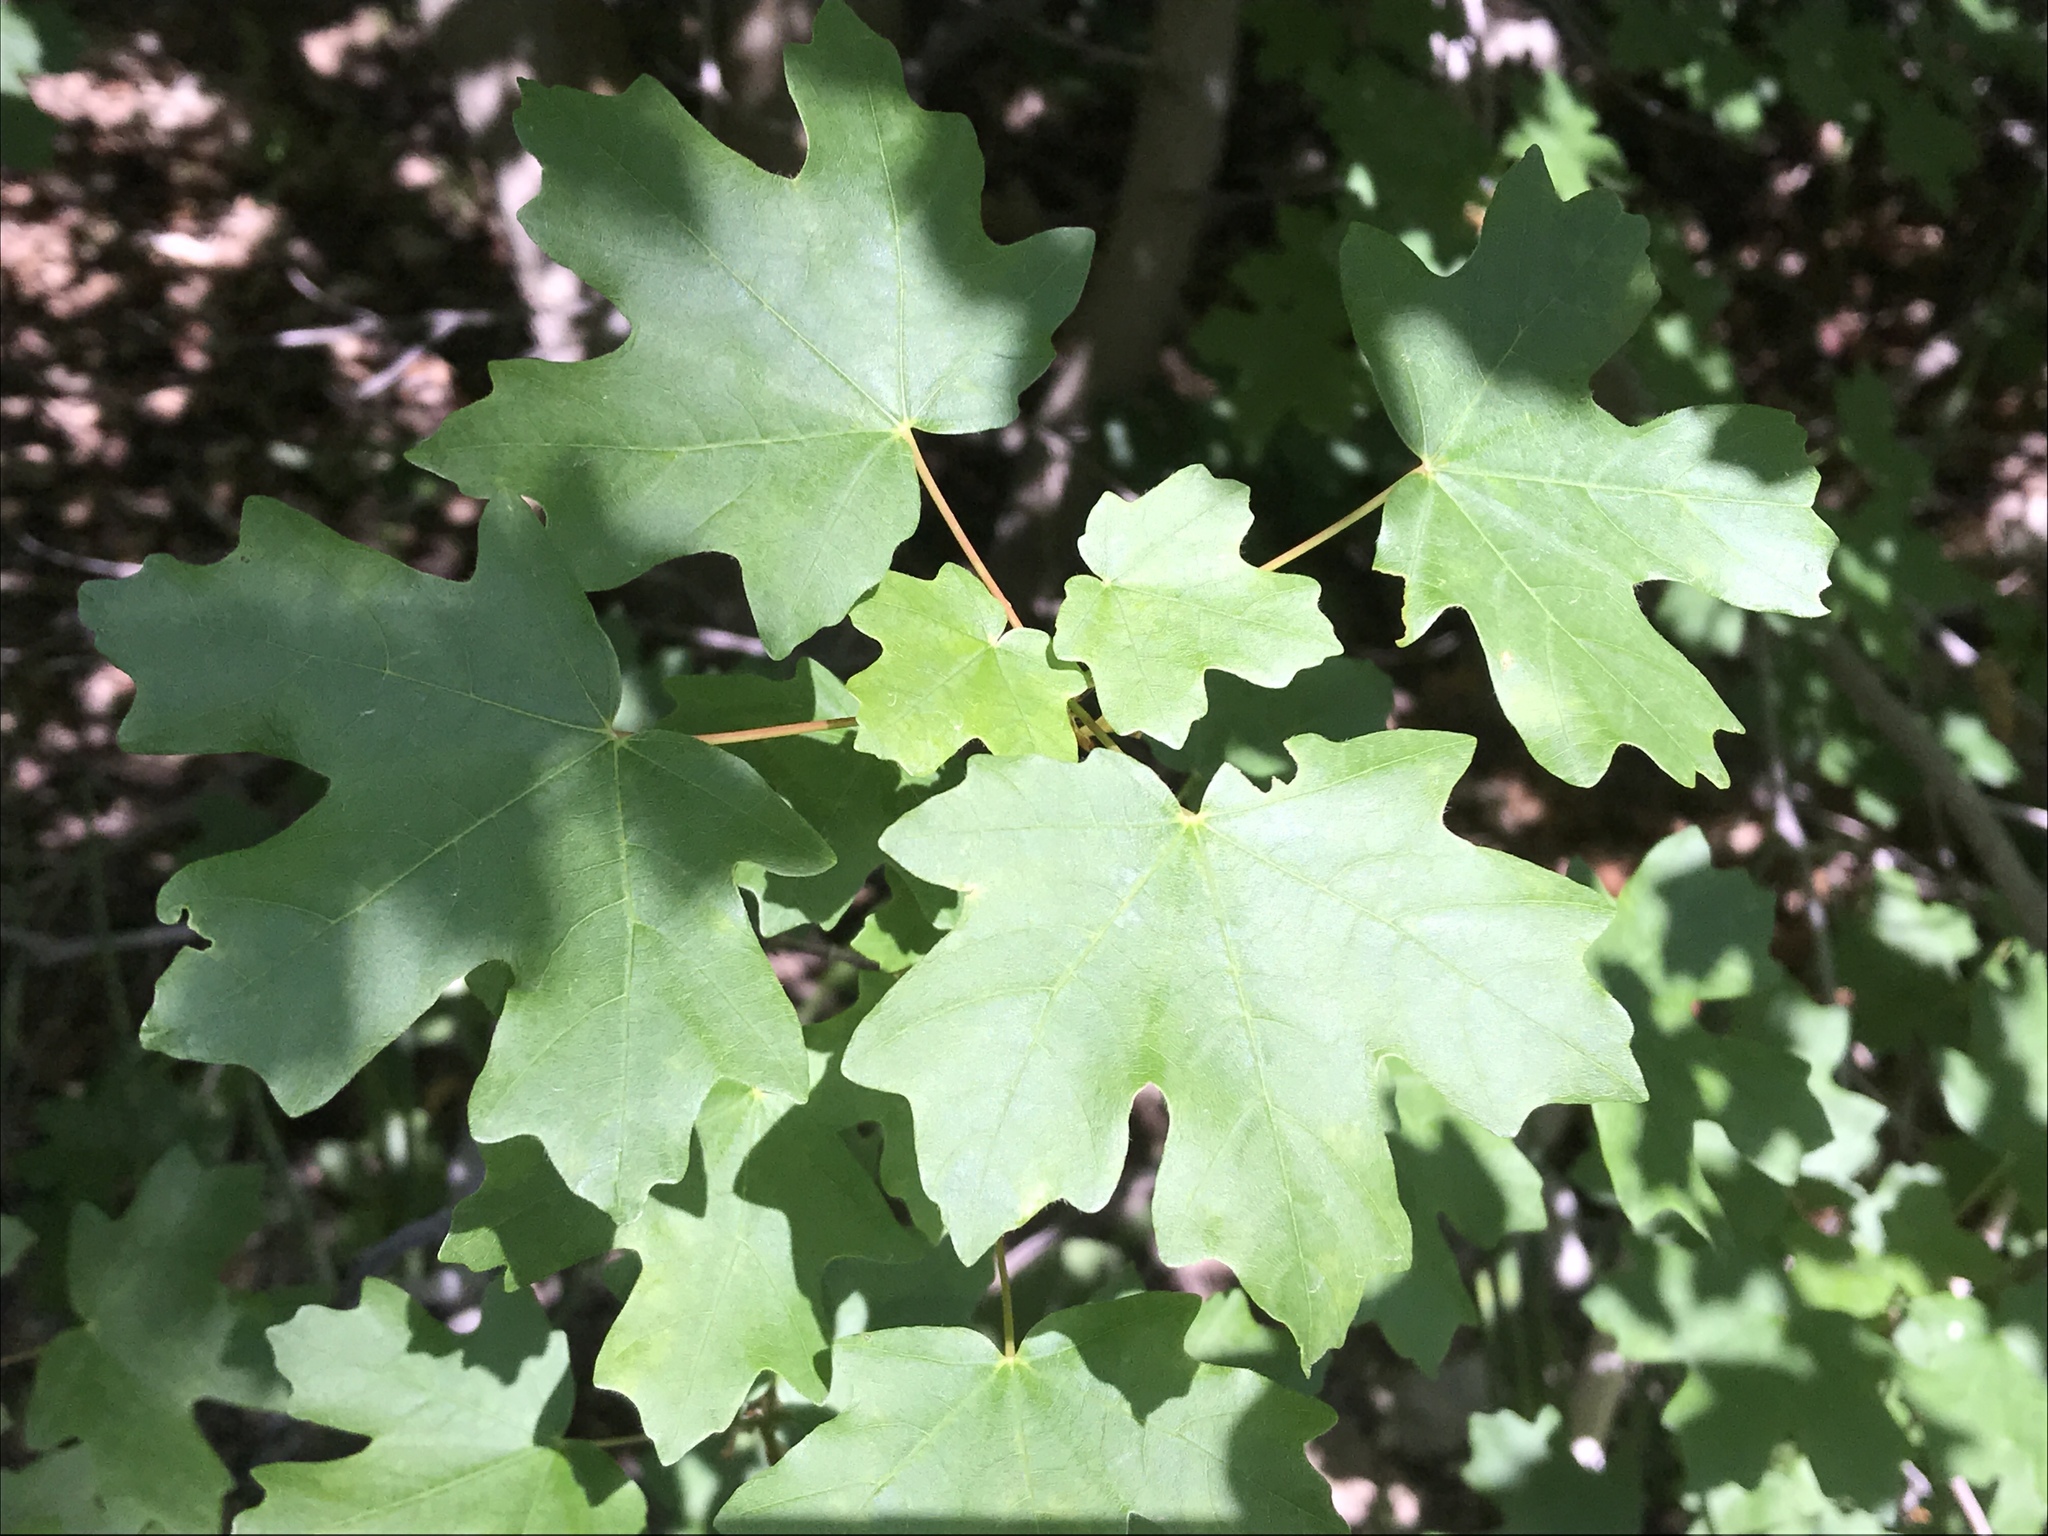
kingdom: Plantae
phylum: Tracheophyta
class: Magnoliopsida
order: Sapindales
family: Sapindaceae
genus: Acer
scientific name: Acer grandidentatum
